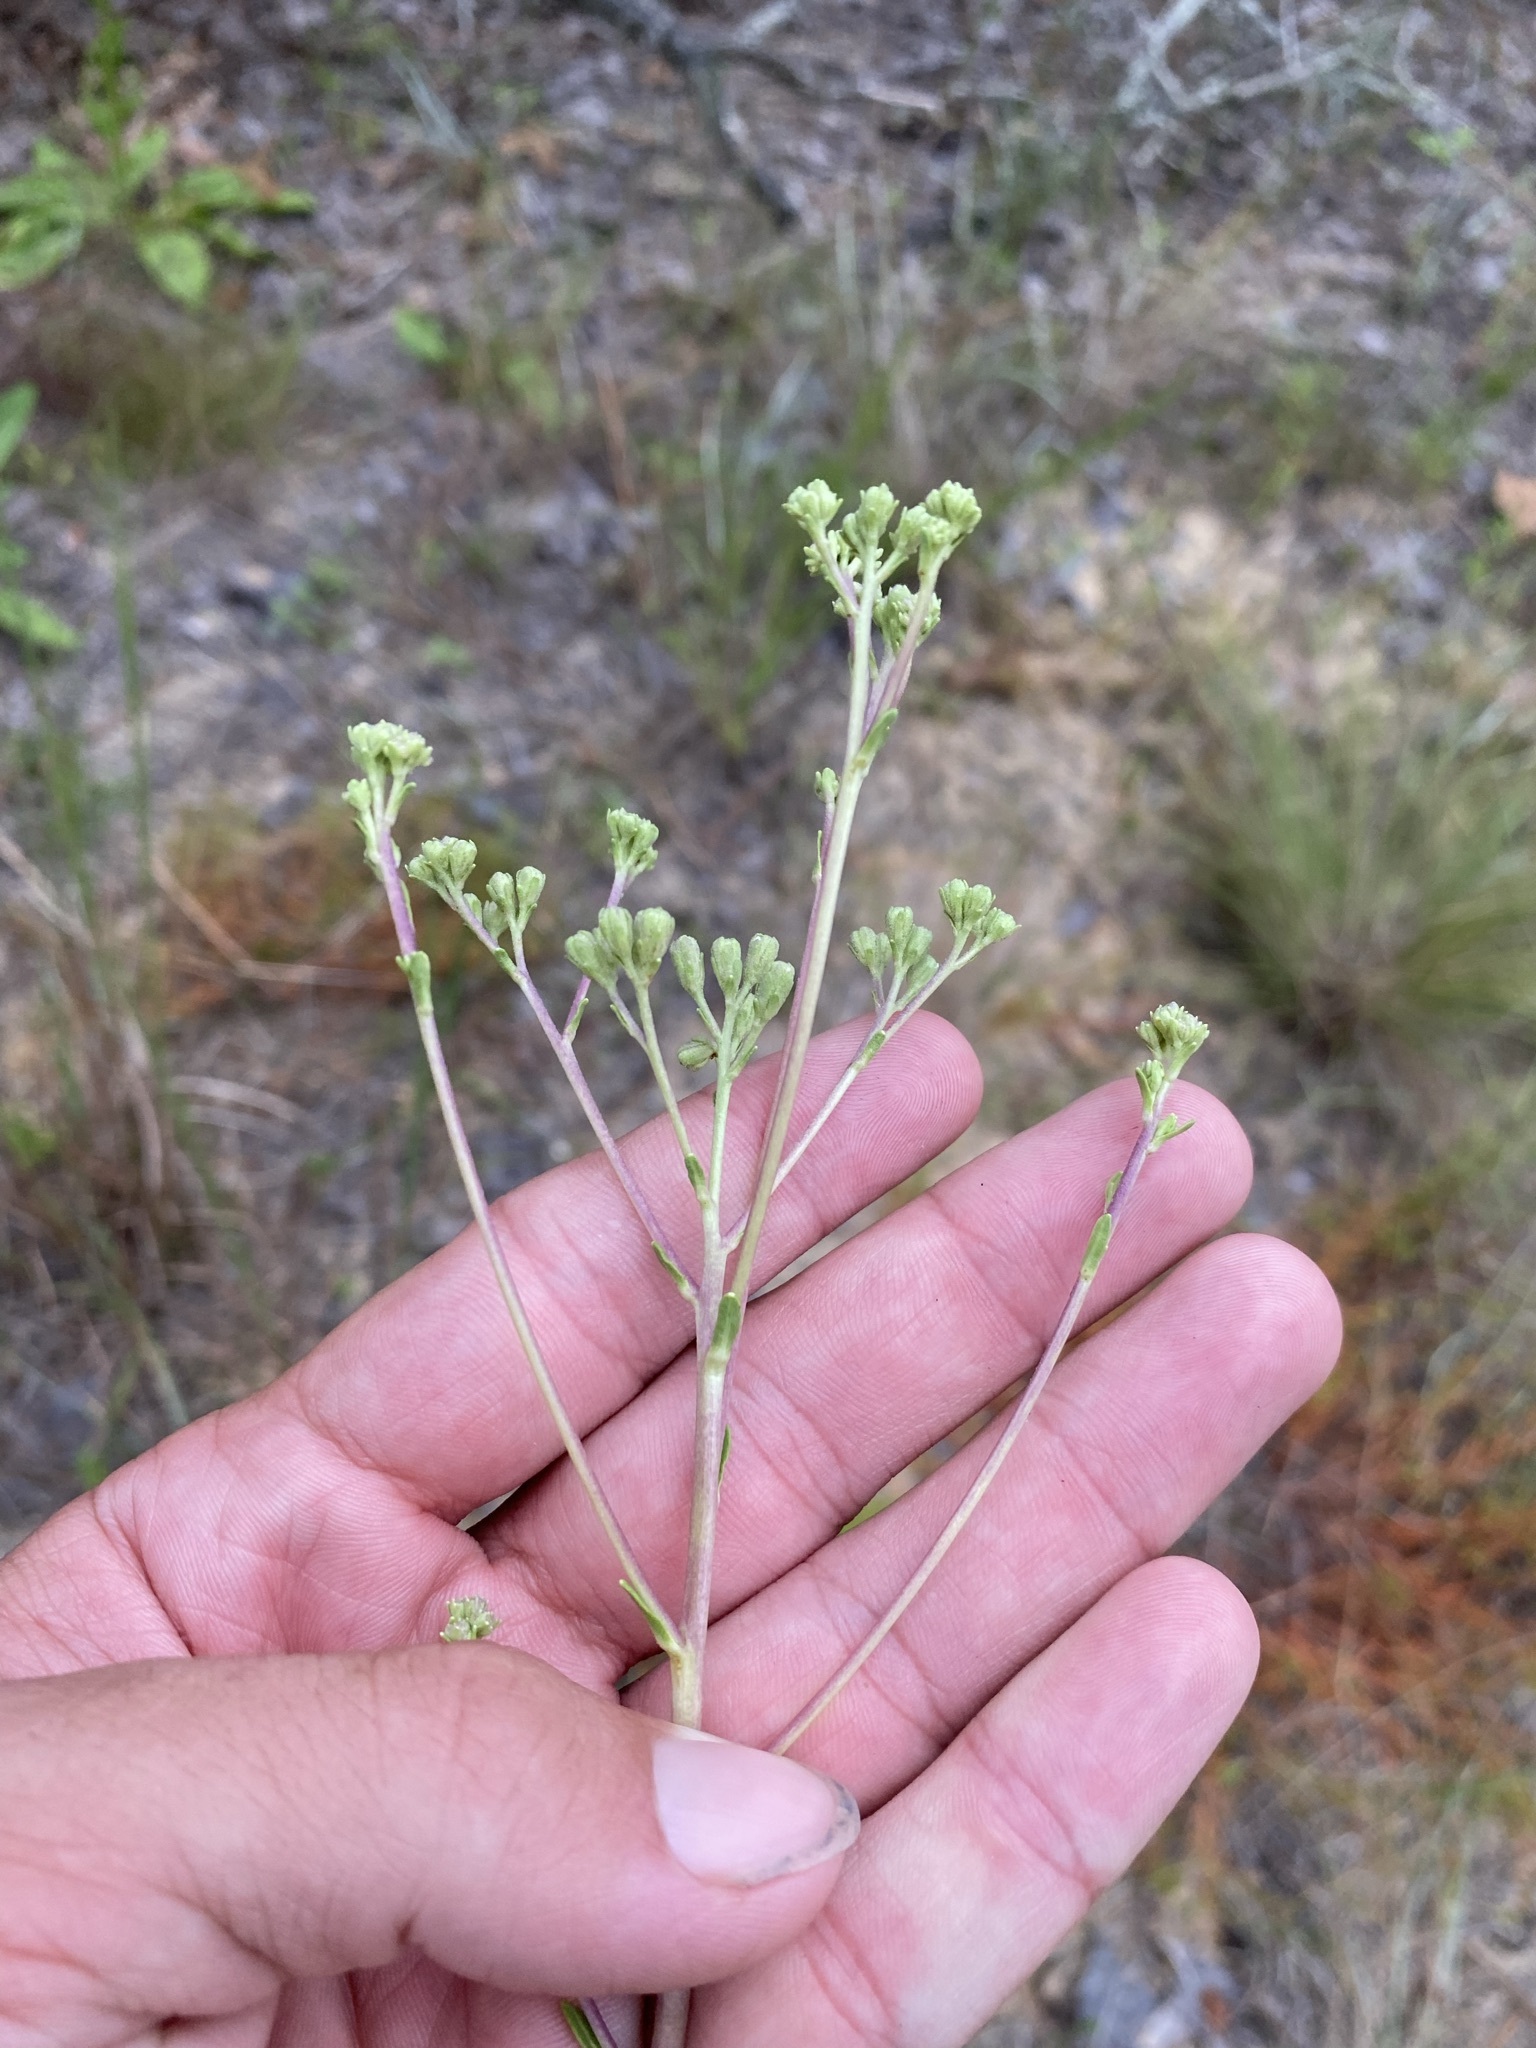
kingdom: Plantae
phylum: Tracheophyta
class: Magnoliopsida
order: Asterales
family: Asteraceae
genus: Carphephorus
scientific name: Carphephorus odoratissimus
